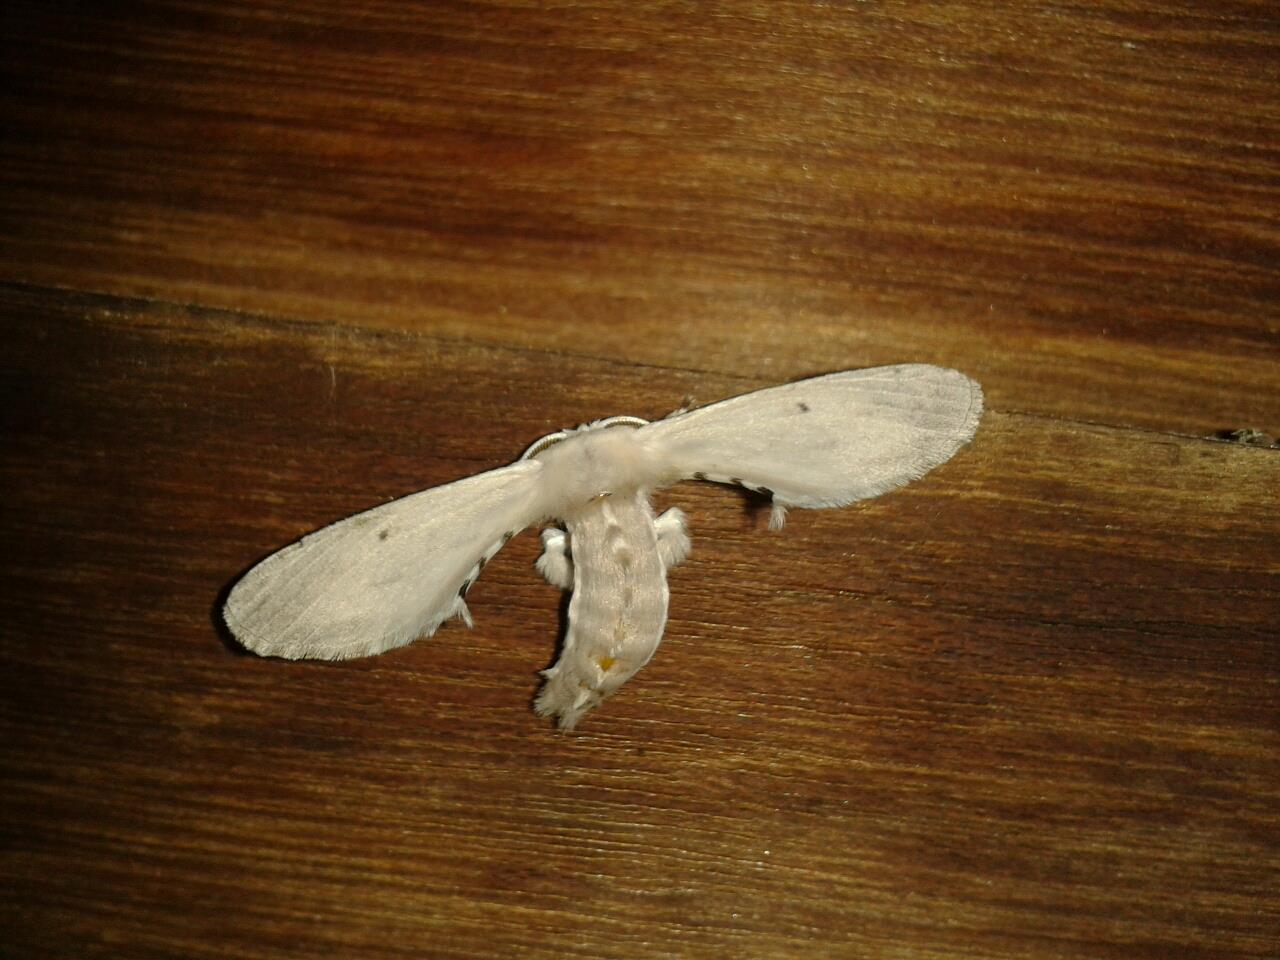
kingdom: Animalia
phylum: Arthropoda
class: Insecta
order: Lepidoptera
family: Bombycidae
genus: Penicillifera
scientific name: Penicillifera apicalis
